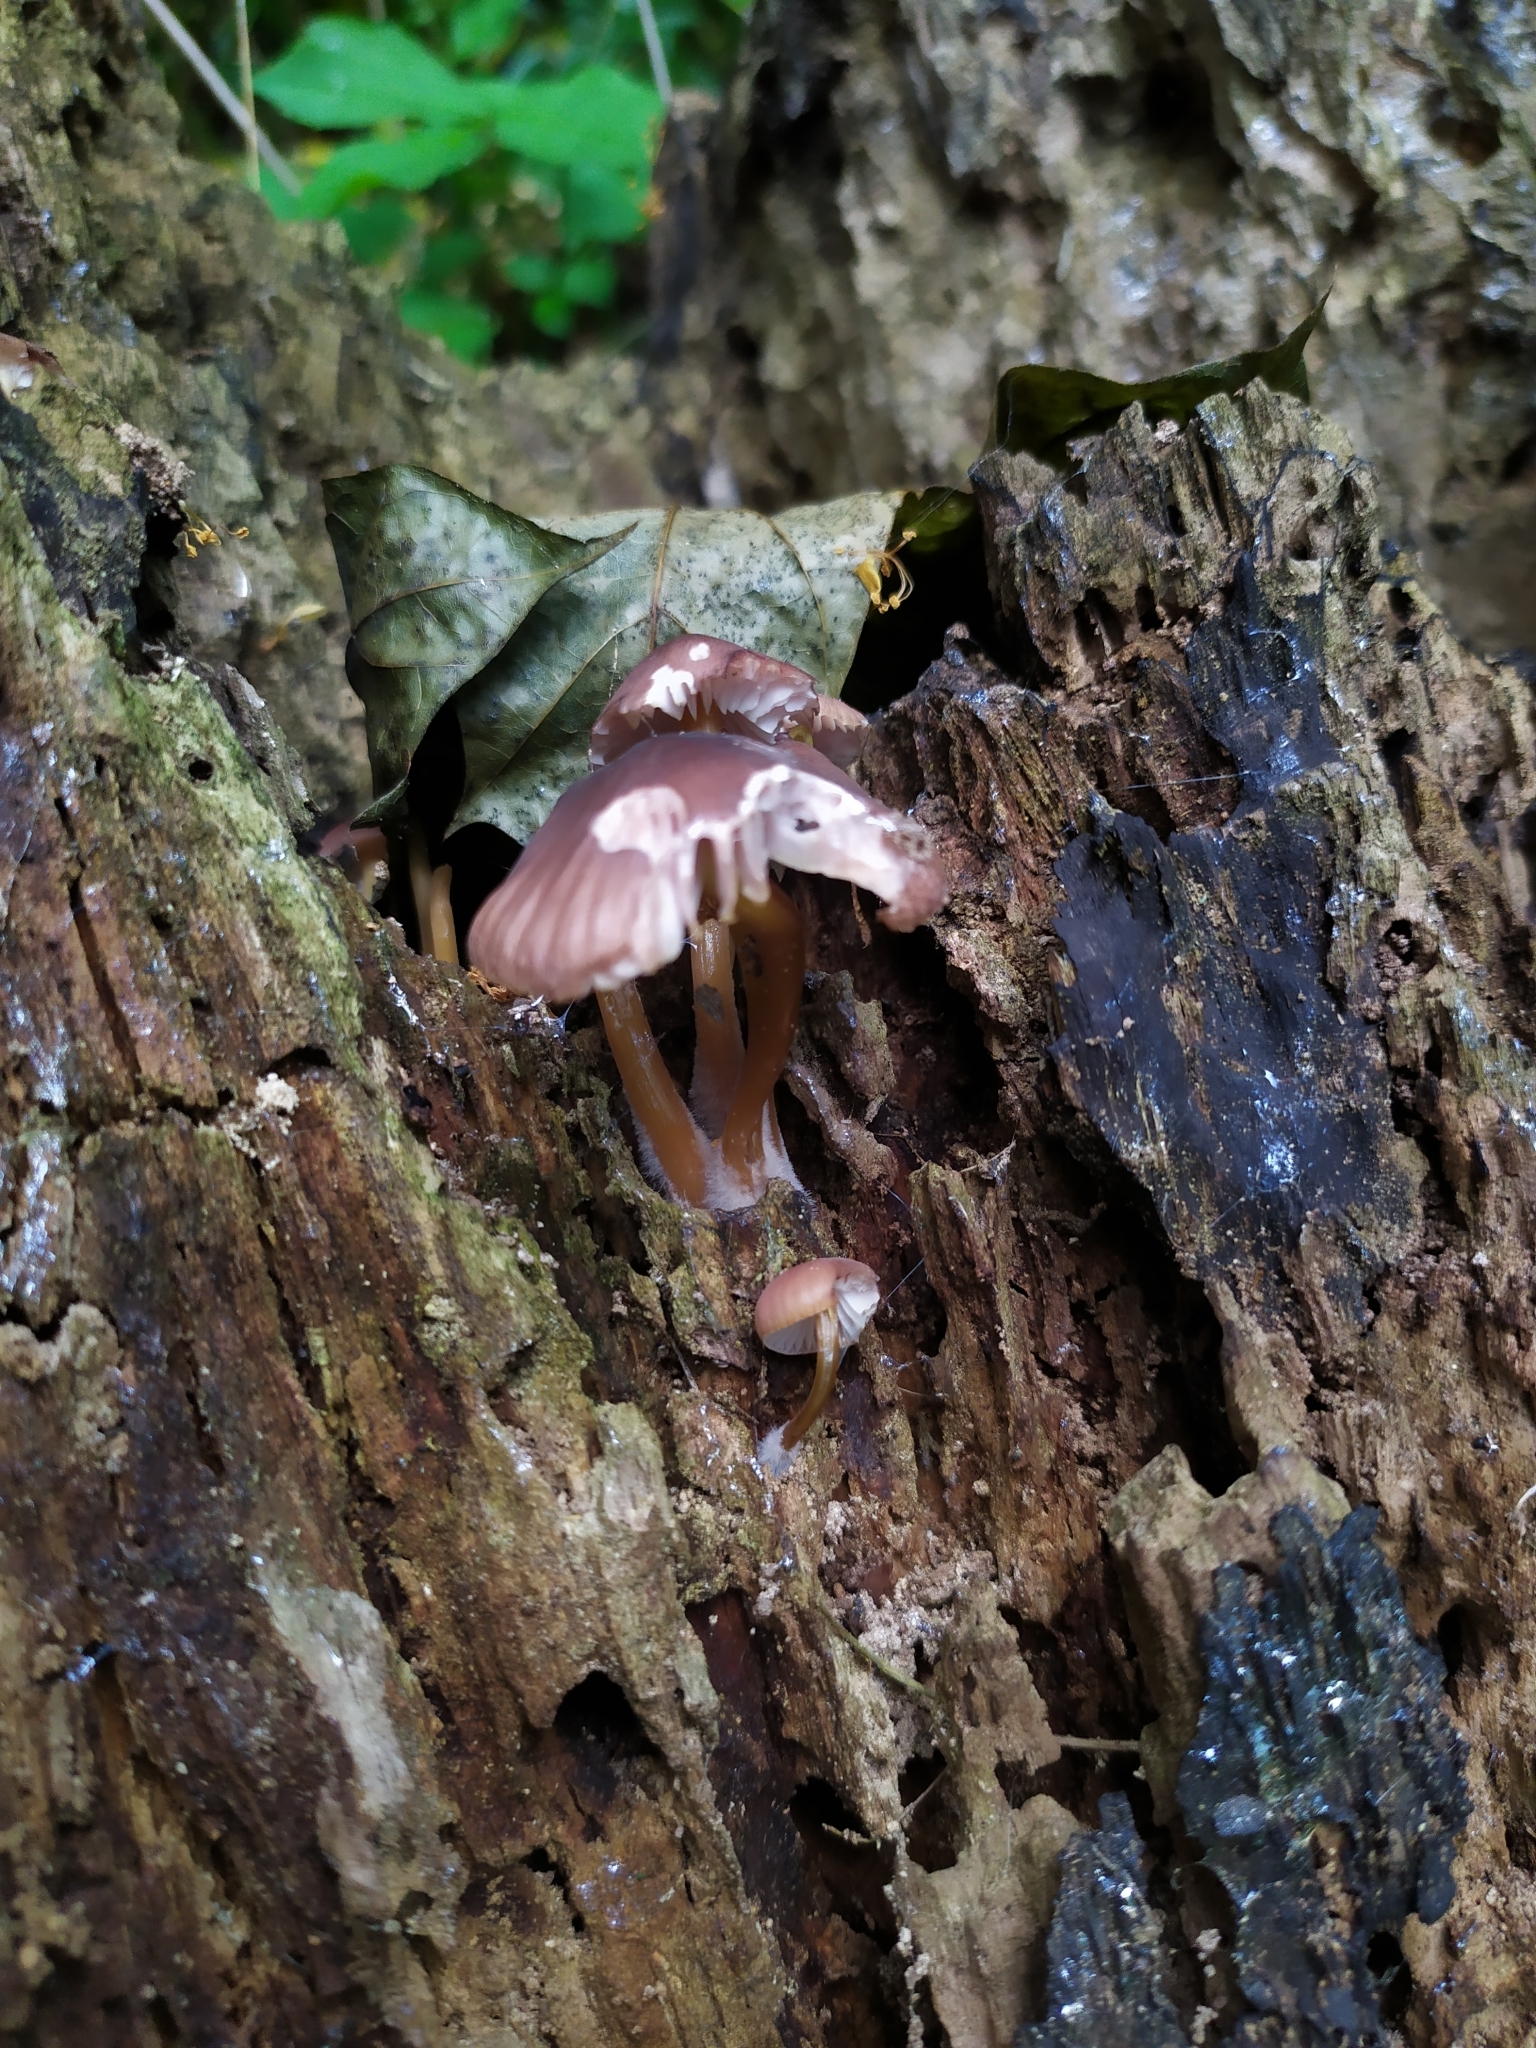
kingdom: Fungi
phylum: Basidiomycota
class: Agaricomycetes
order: Agaricales
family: Mycenaceae
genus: Mycena
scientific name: Mycena renati
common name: Beautiful bonnet
